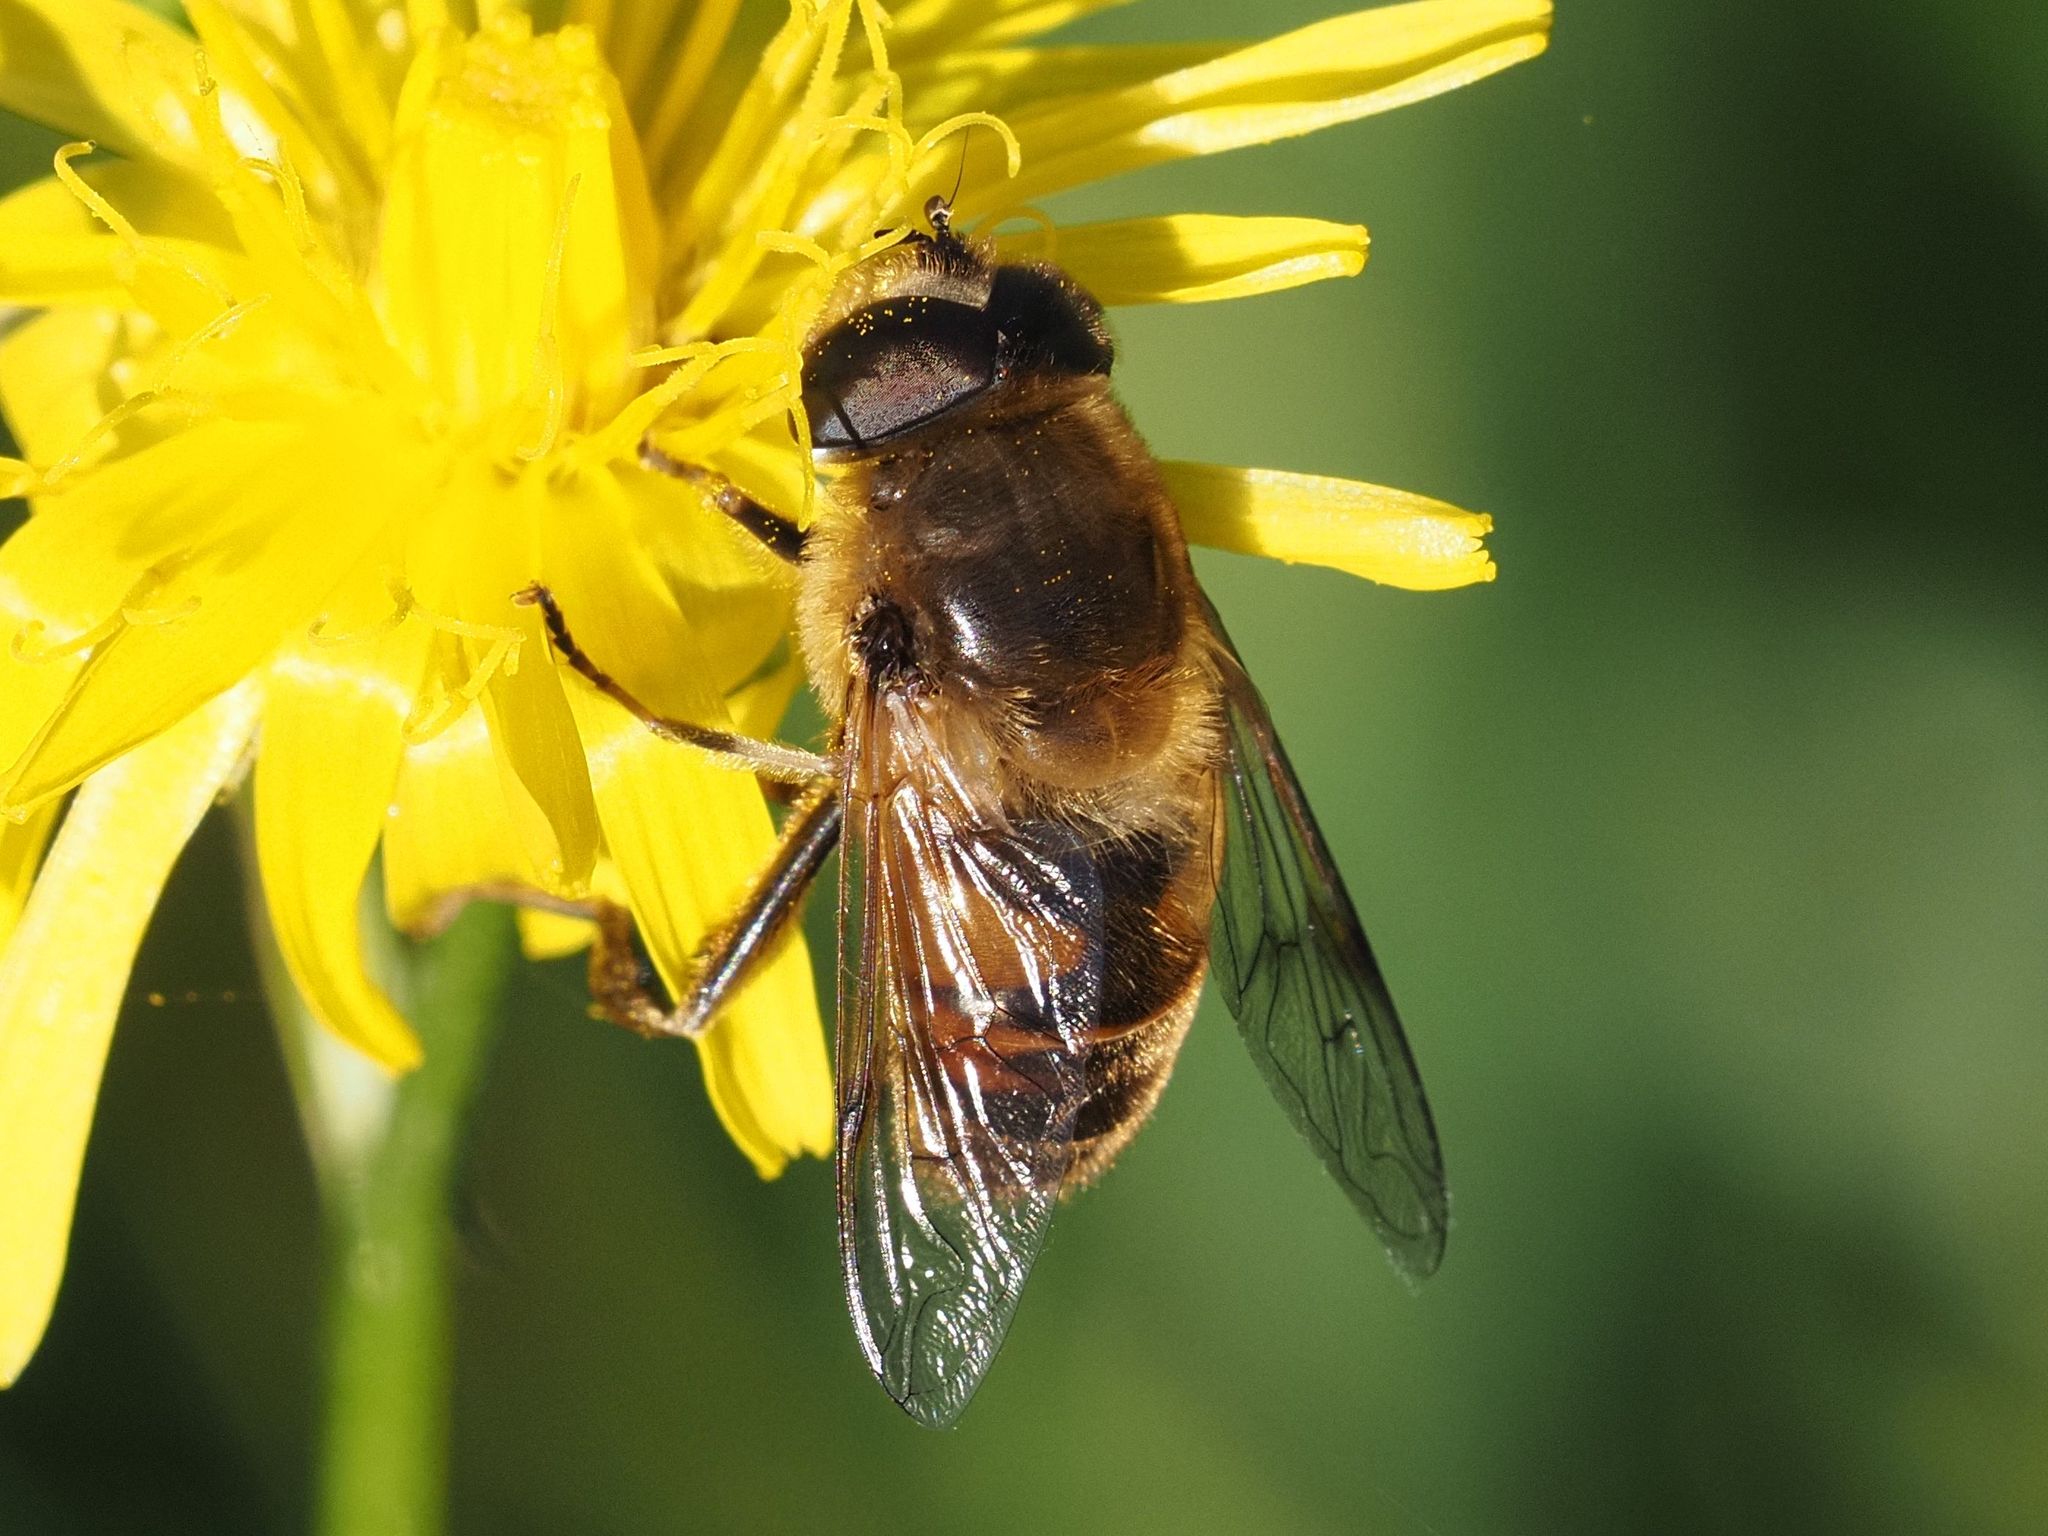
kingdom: Animalia
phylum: Arthropoda
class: Insecta
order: Diptera
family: Syrphidae
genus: Eristalis
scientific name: Eristalis tenax
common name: Drone fly
